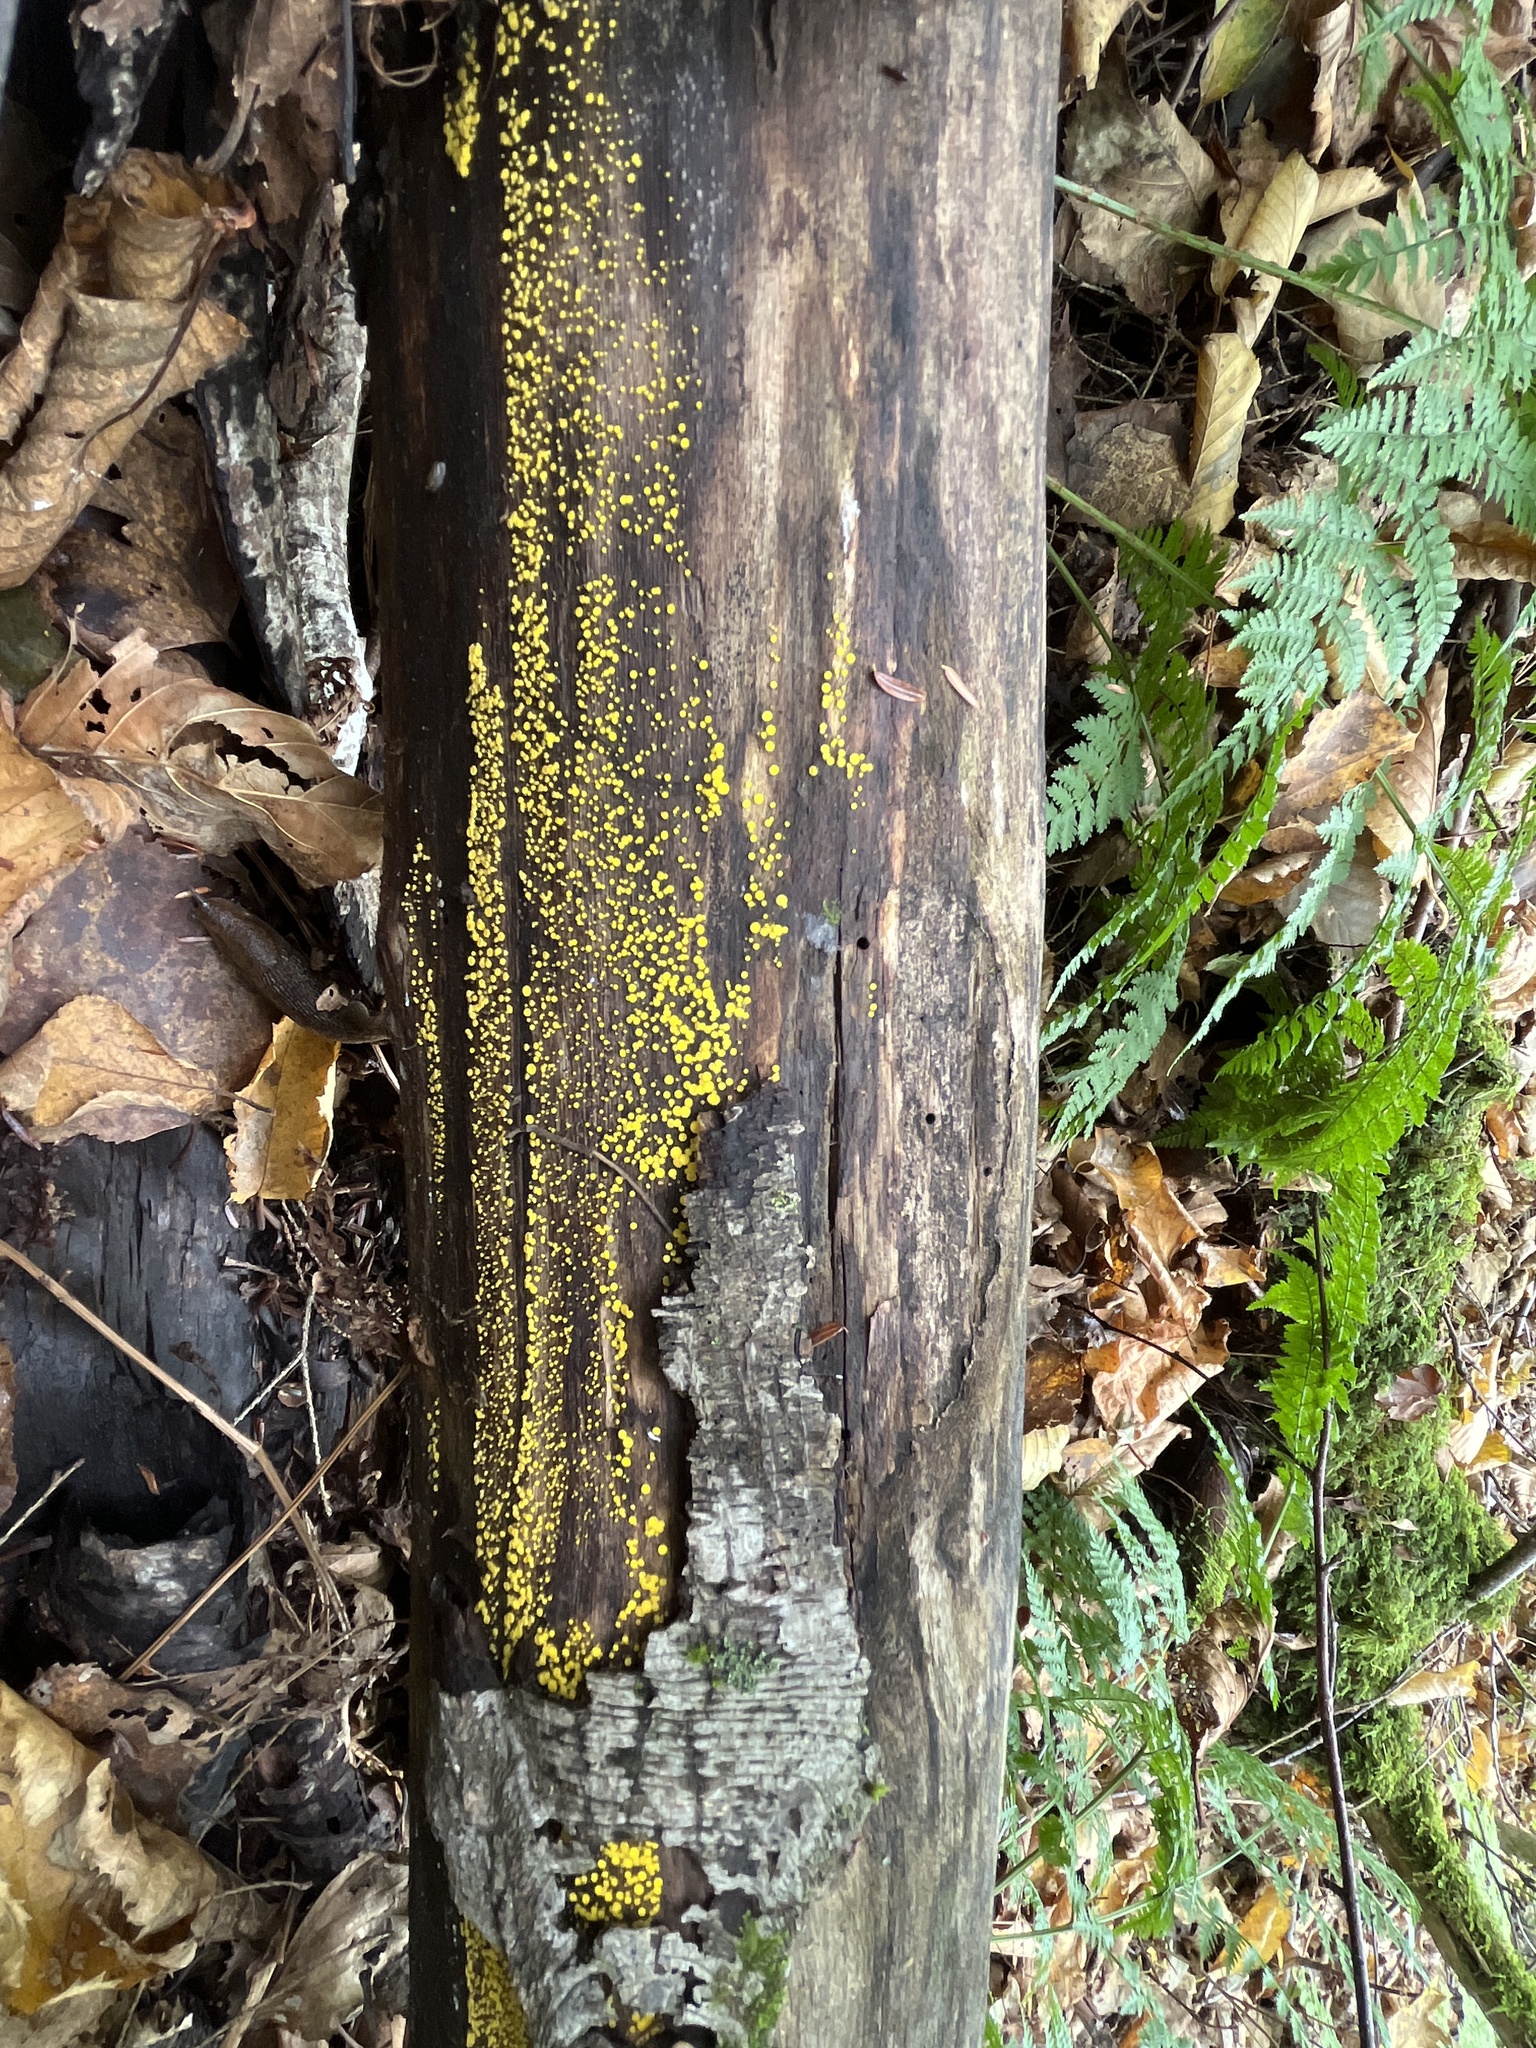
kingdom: Fungi
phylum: Ascomycota
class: Leotiomycetes
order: Helotiales
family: Pezizellaceae
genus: Calycina
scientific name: Calycina citrina
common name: Yellow fairy cups
